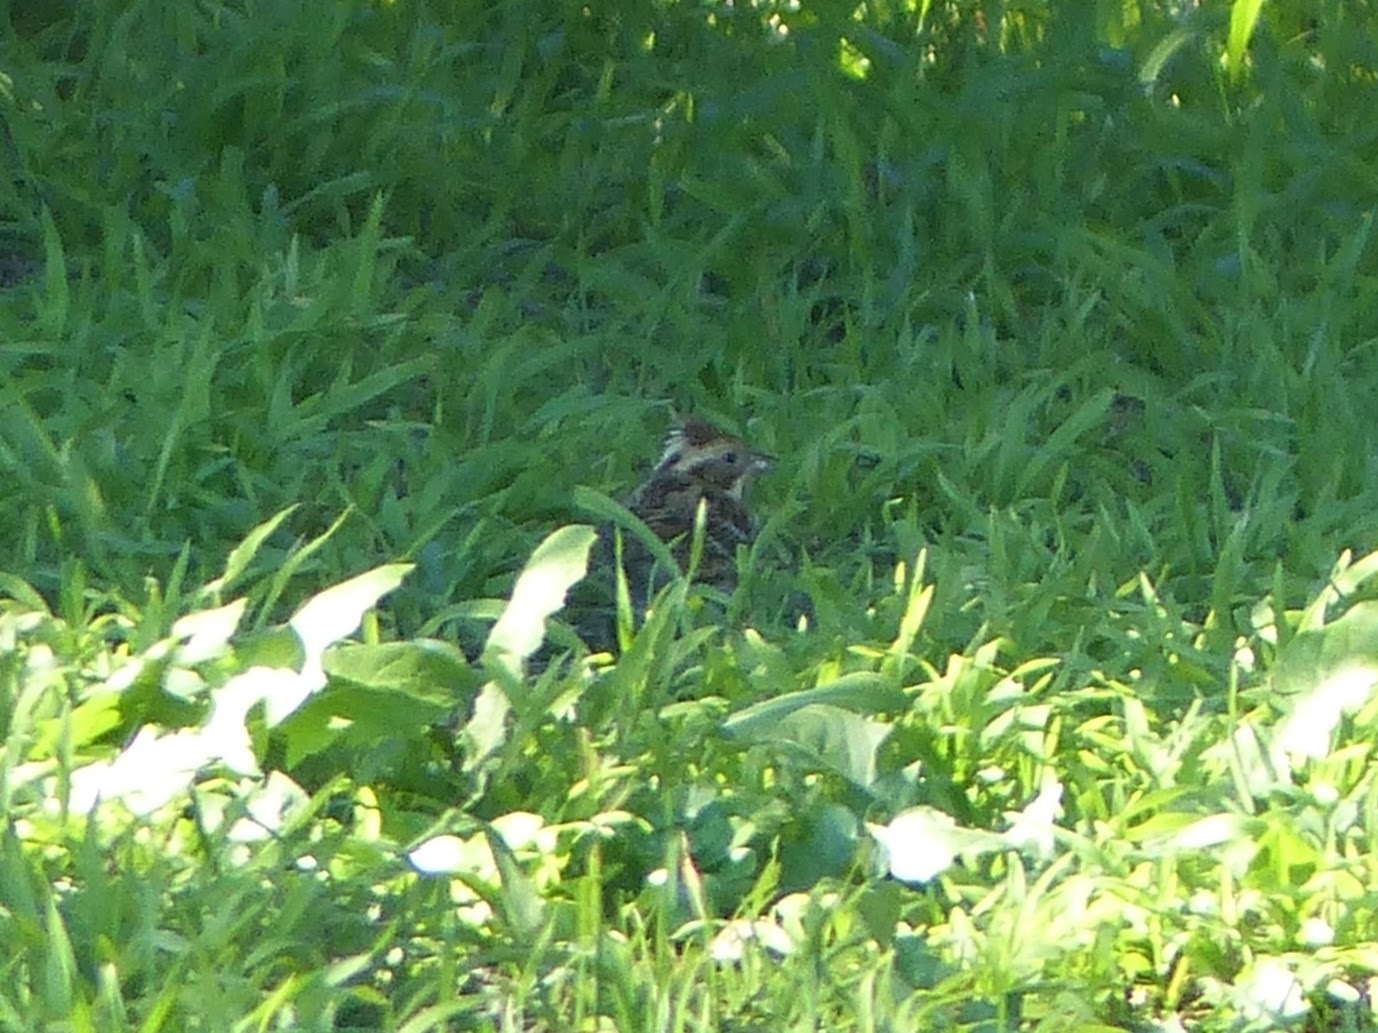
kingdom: Animalia
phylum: Chordata
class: Aves
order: Passeriformes
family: Emberizidae
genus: Emberiza
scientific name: Emberiza rustica
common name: Rustic bunting
